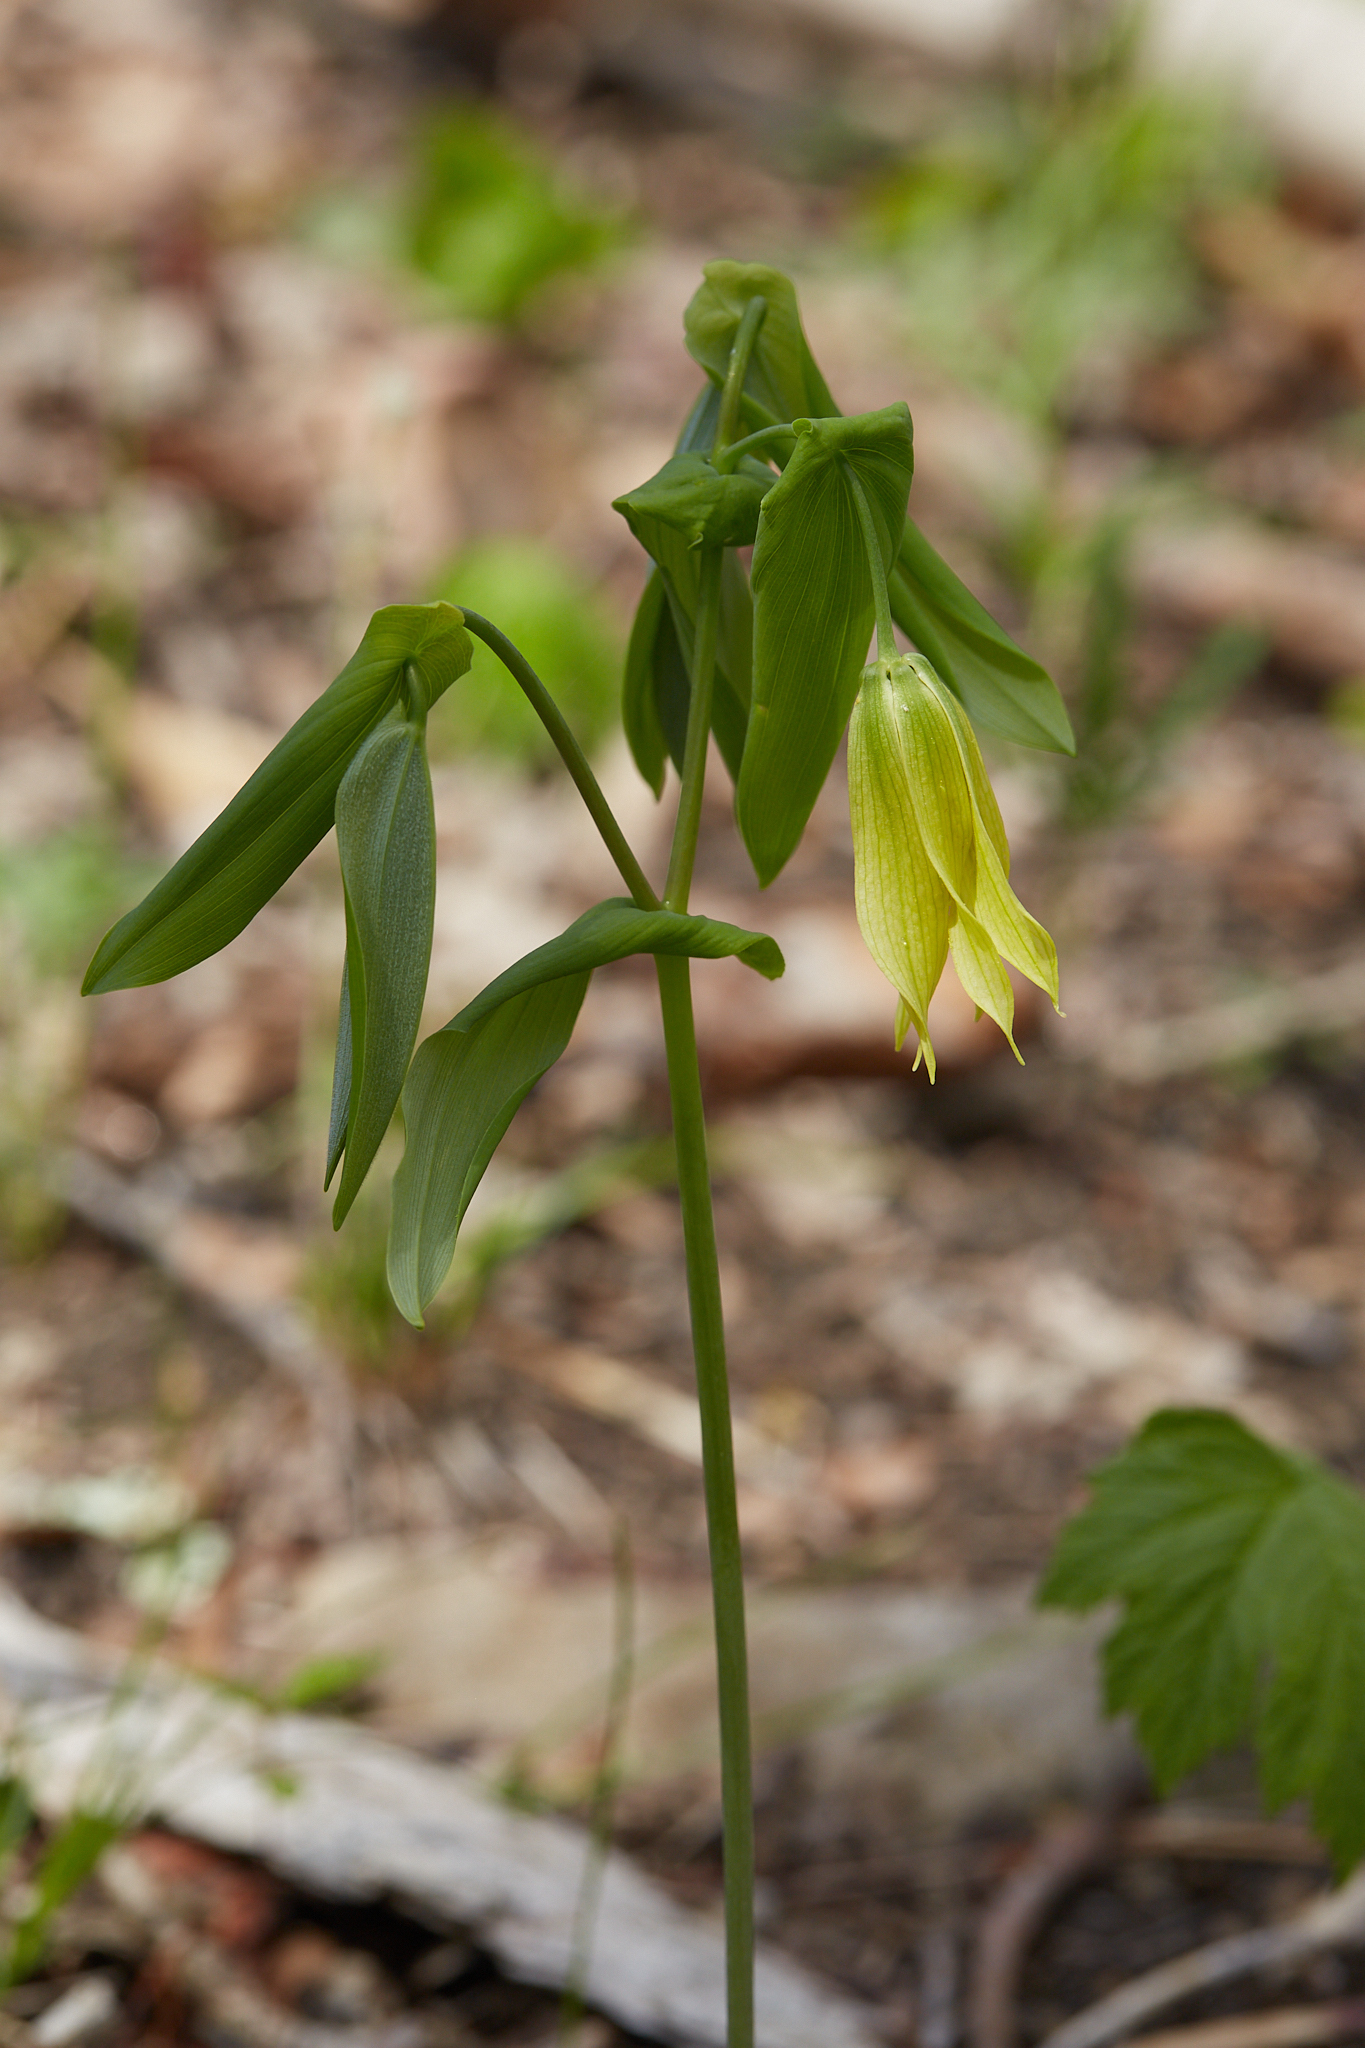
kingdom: Plantae
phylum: Tracheophyta
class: Liliopsida
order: Liliales
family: Colchicaceae
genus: Uvularia
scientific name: Uvularia grandiflora
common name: Bellwort
